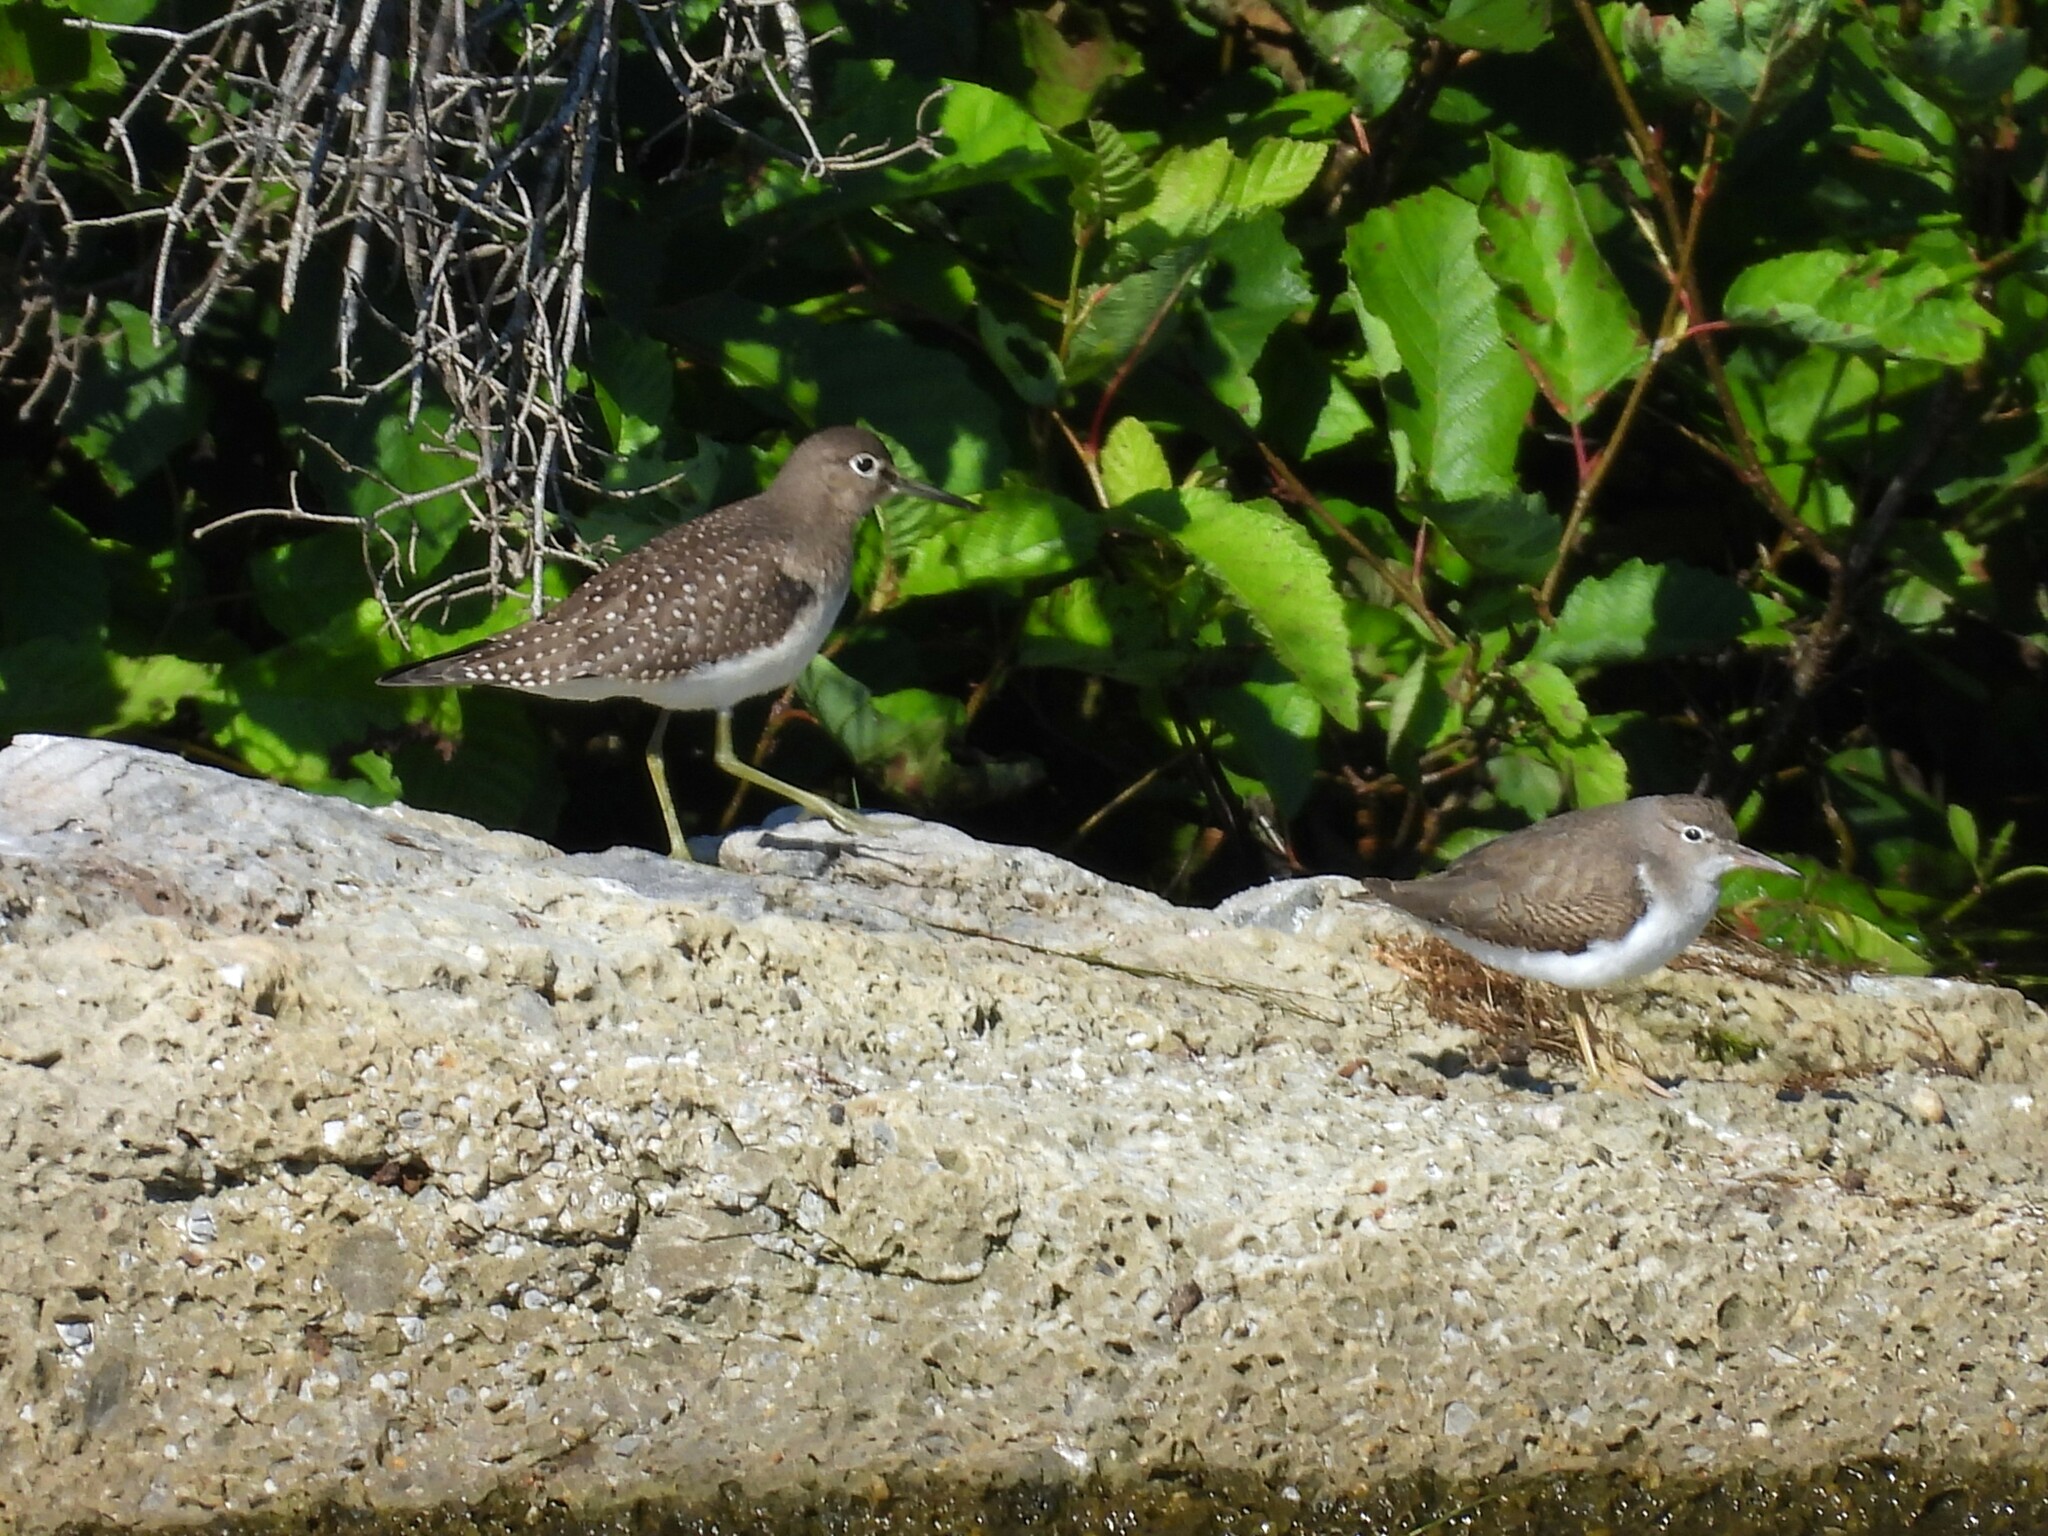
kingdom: Animalia
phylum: Chordata
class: Aves
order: Charadriiformes
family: Scolopacidae
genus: Actitis
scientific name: Actitis macularius
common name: Spotted sandpiper
